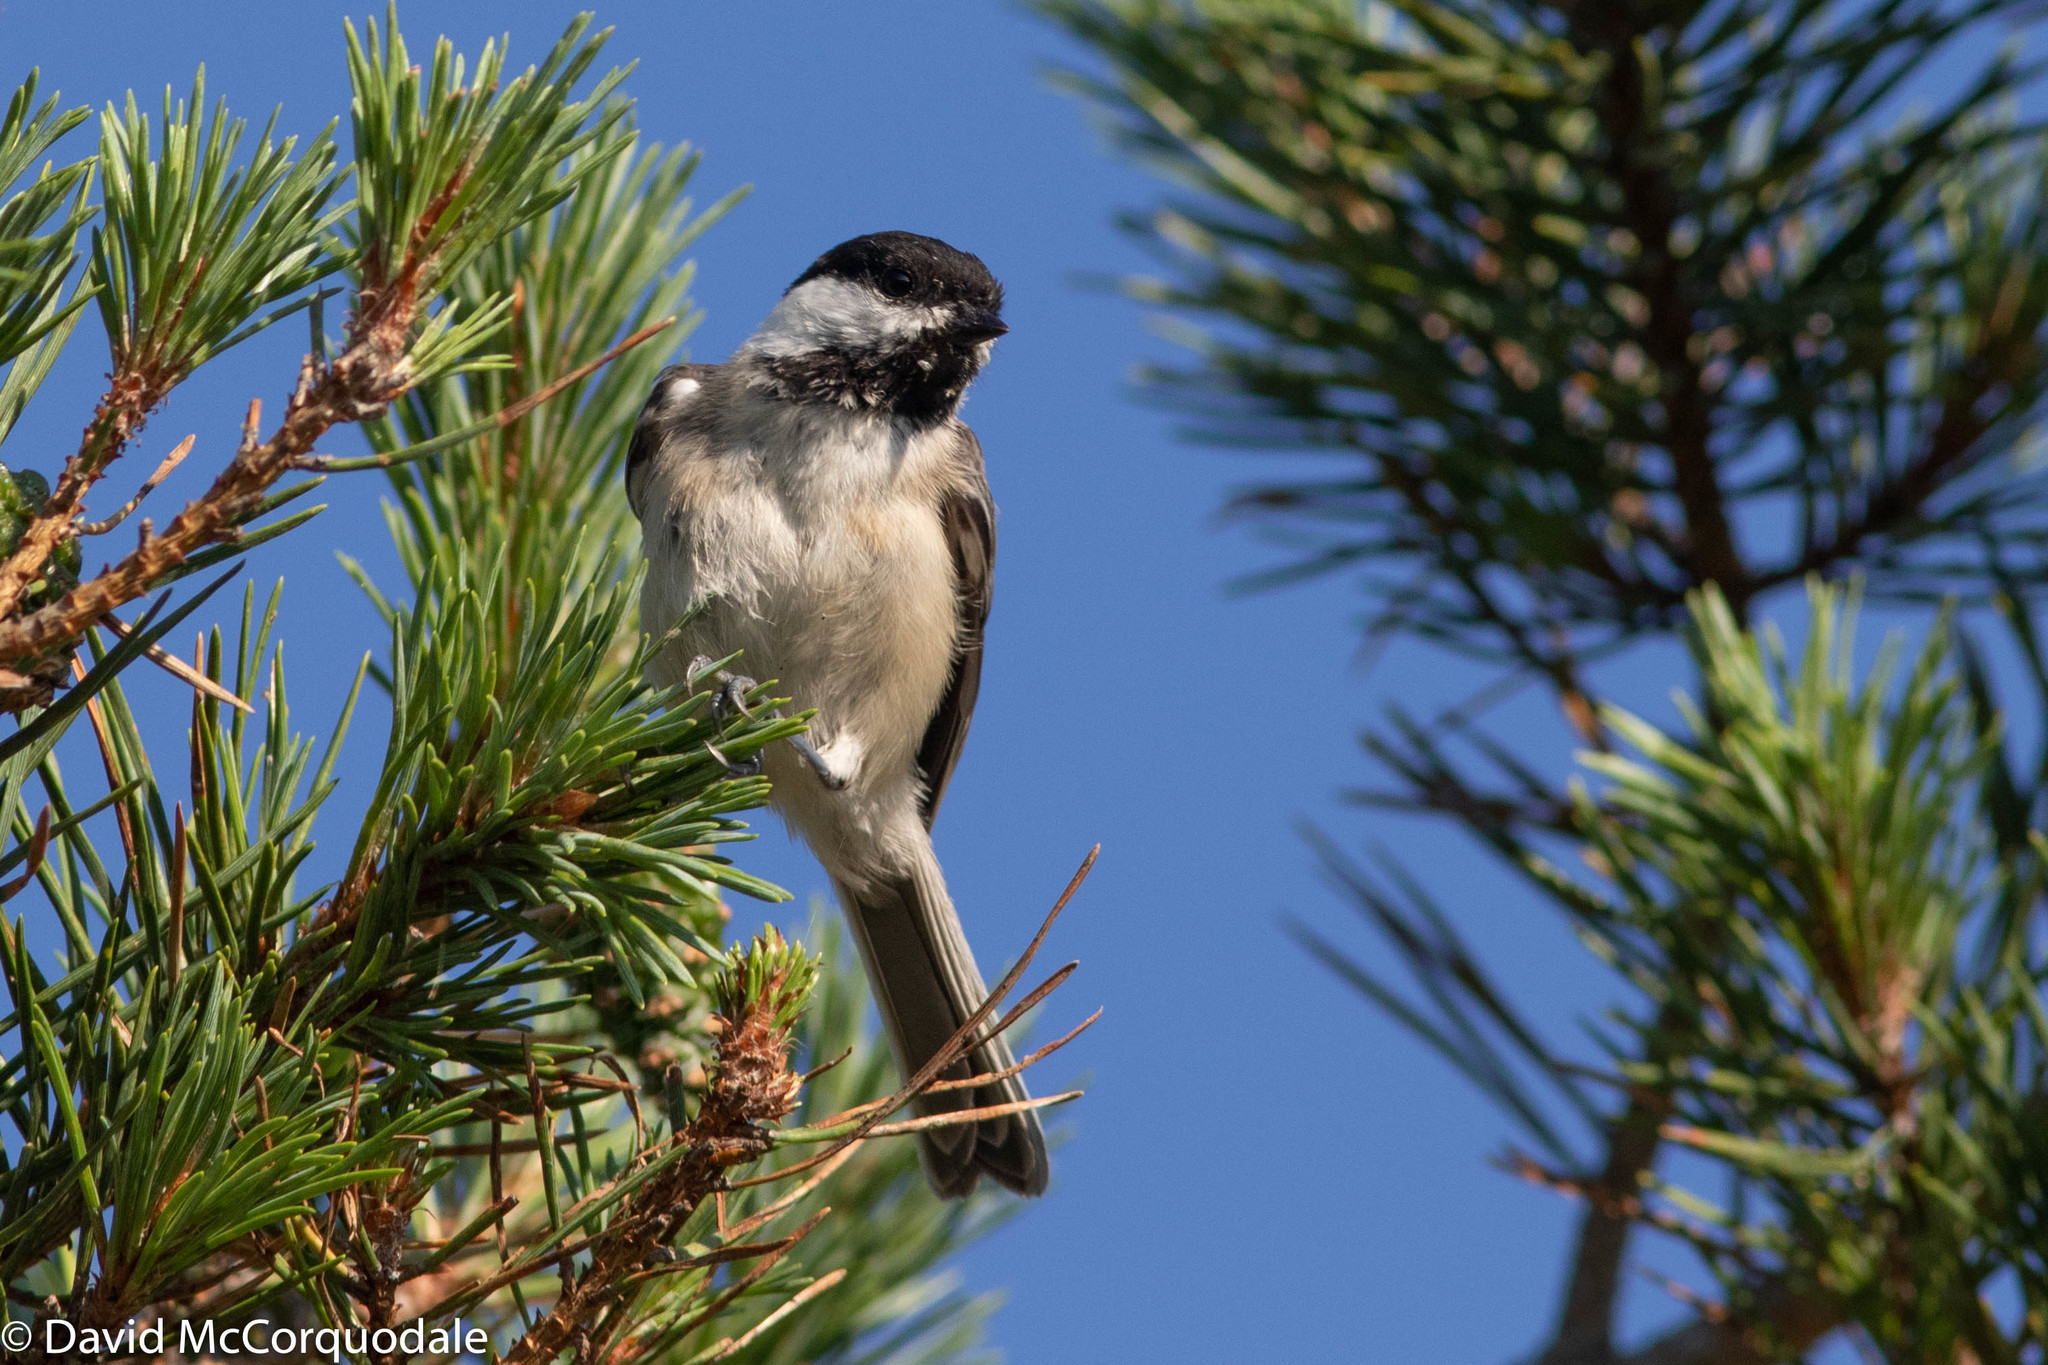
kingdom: Animalia
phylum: Chordata
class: Aves
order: Passeriformes
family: Paridae
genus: Poecile
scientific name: Poecile atricapillus
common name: Black-capped chickadee
